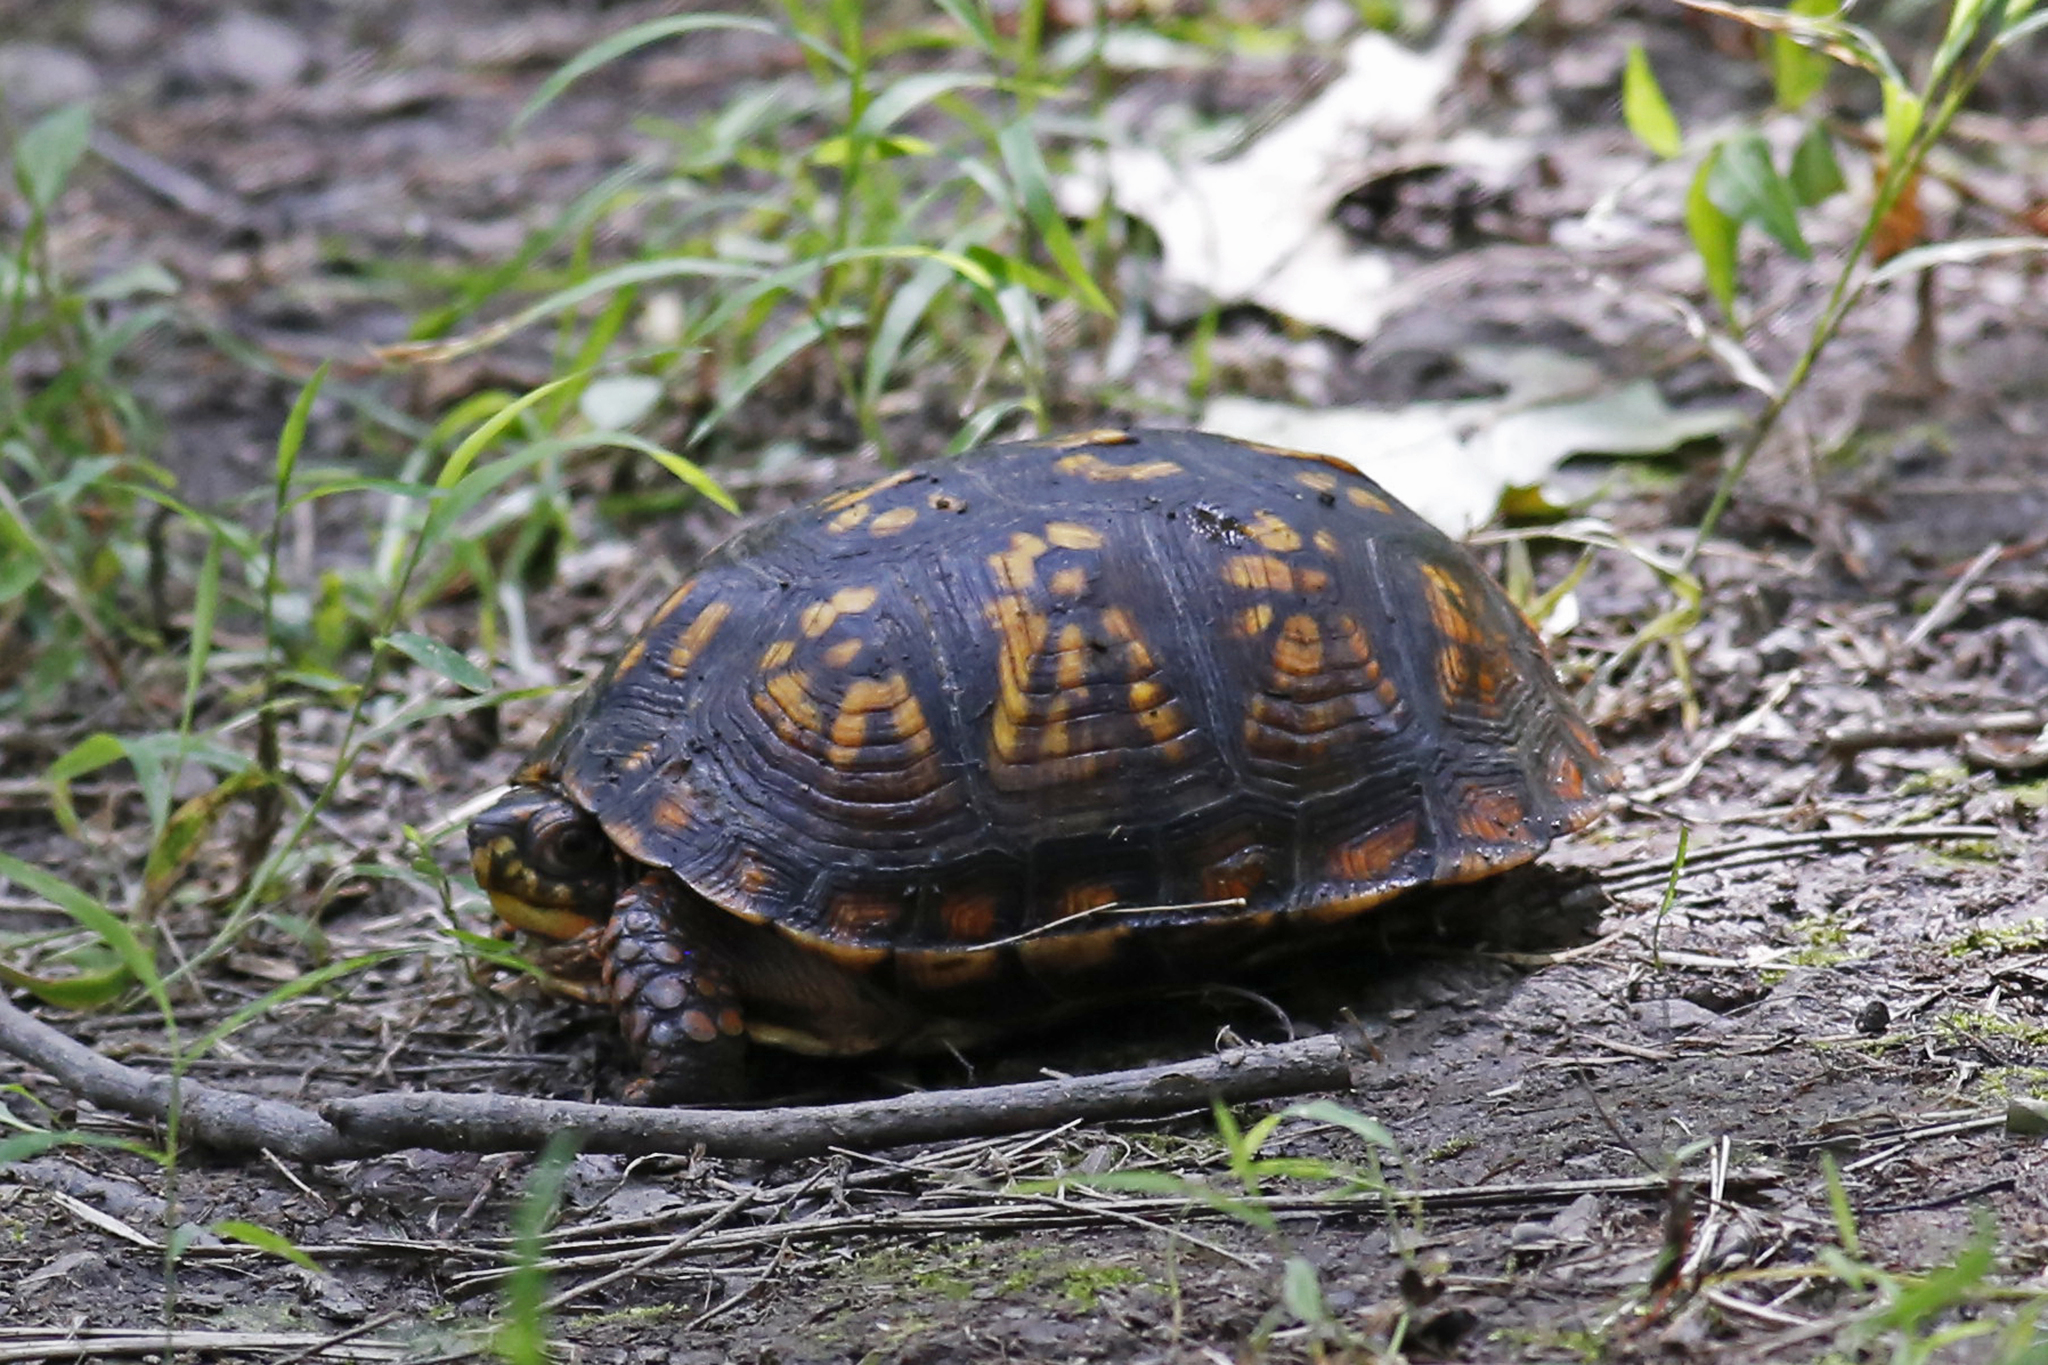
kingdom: Animalia
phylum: Chordata
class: Testudines
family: Emydidae
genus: Terrapene
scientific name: Terrapene carolina
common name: Common box turtle
